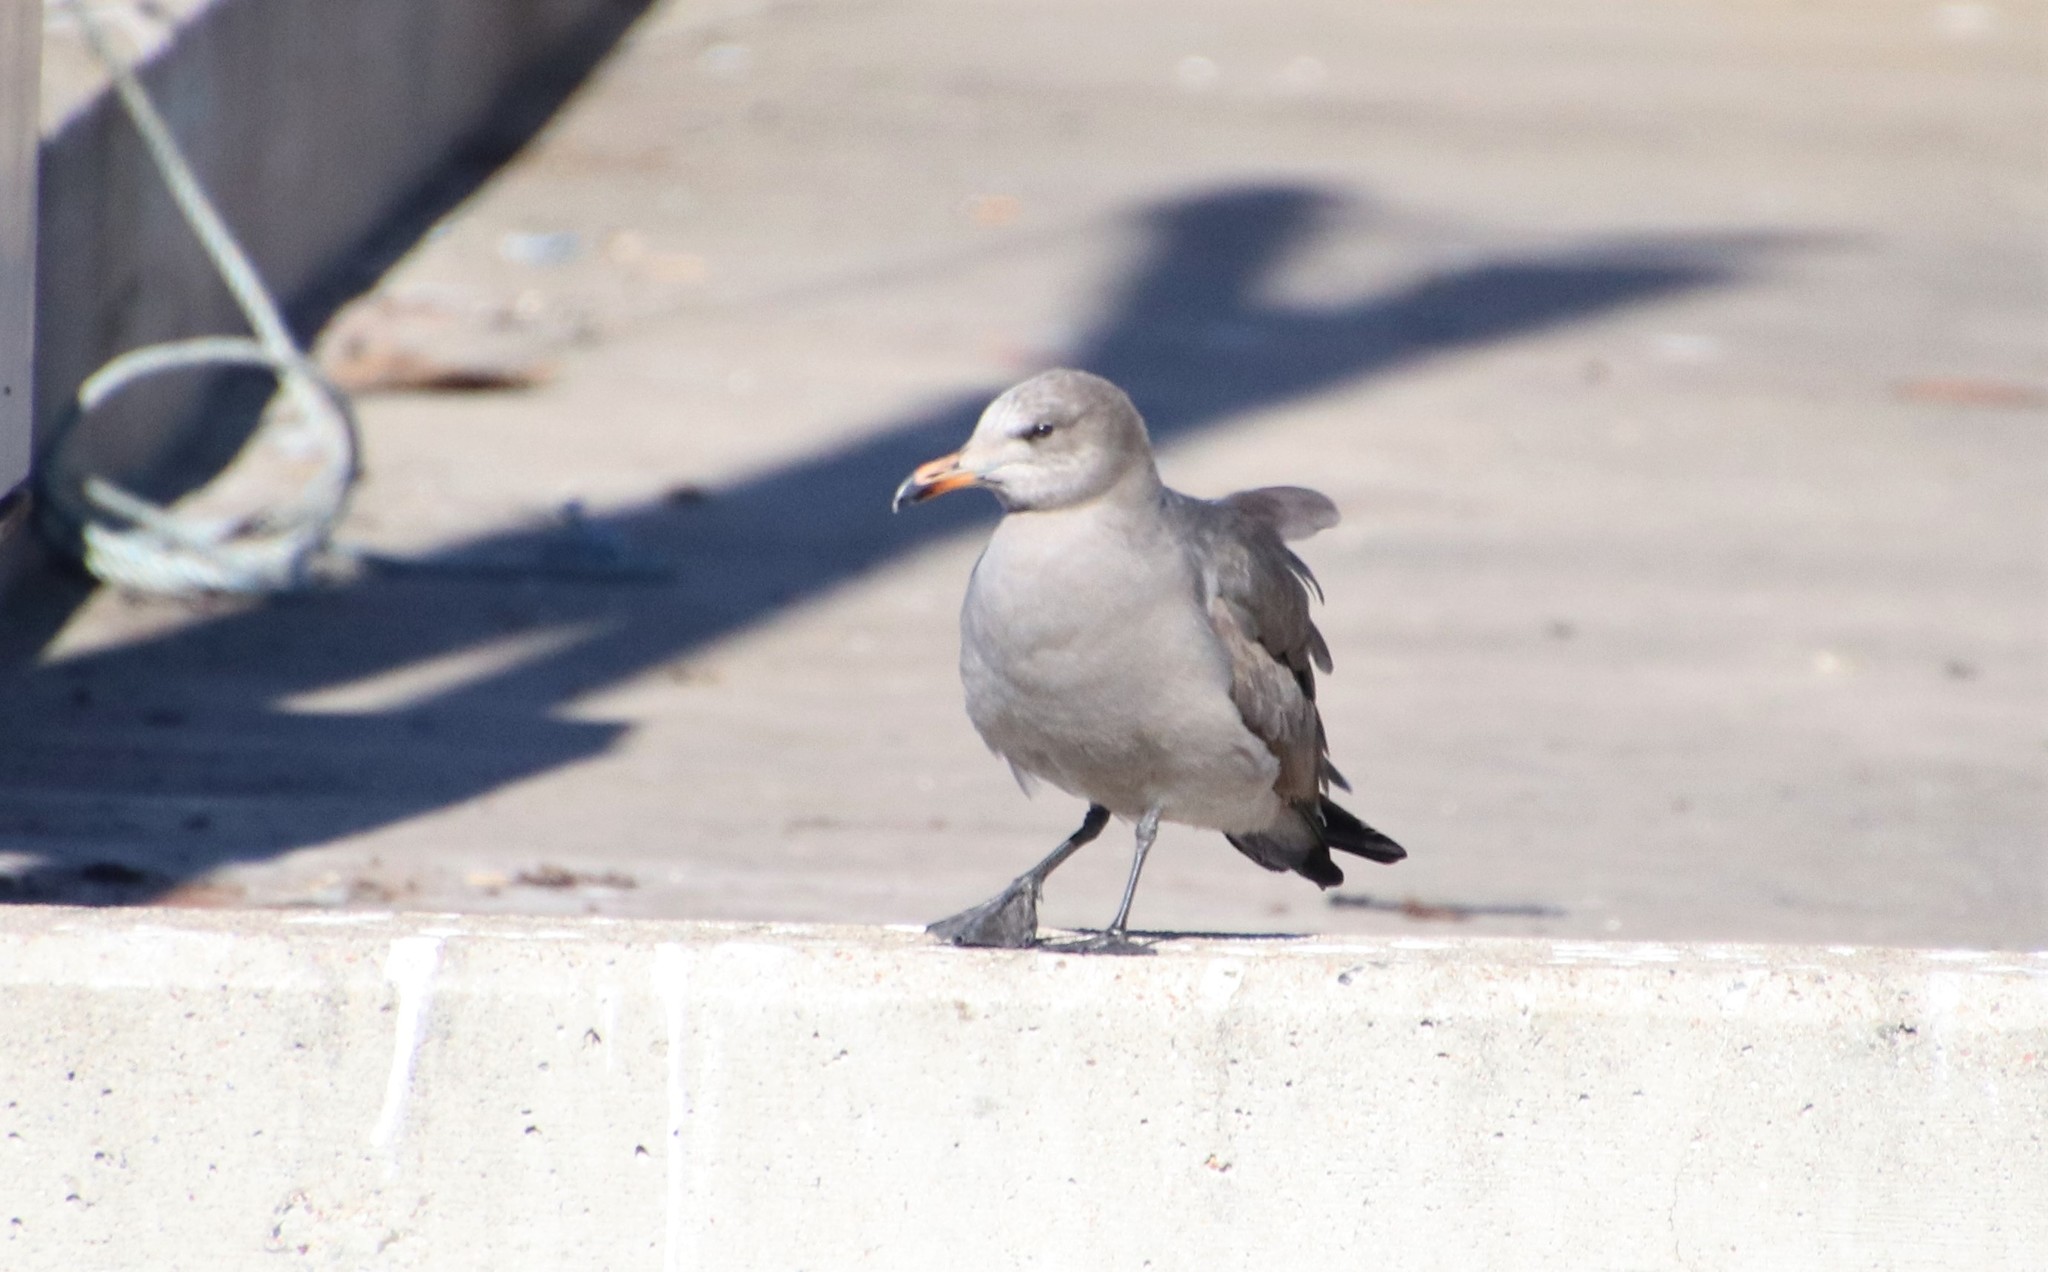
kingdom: Animalia
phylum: Chordata
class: Aves
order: Charadriiformes
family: Laridae
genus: Larus
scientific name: Larus heermanni
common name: Heermann's gull
